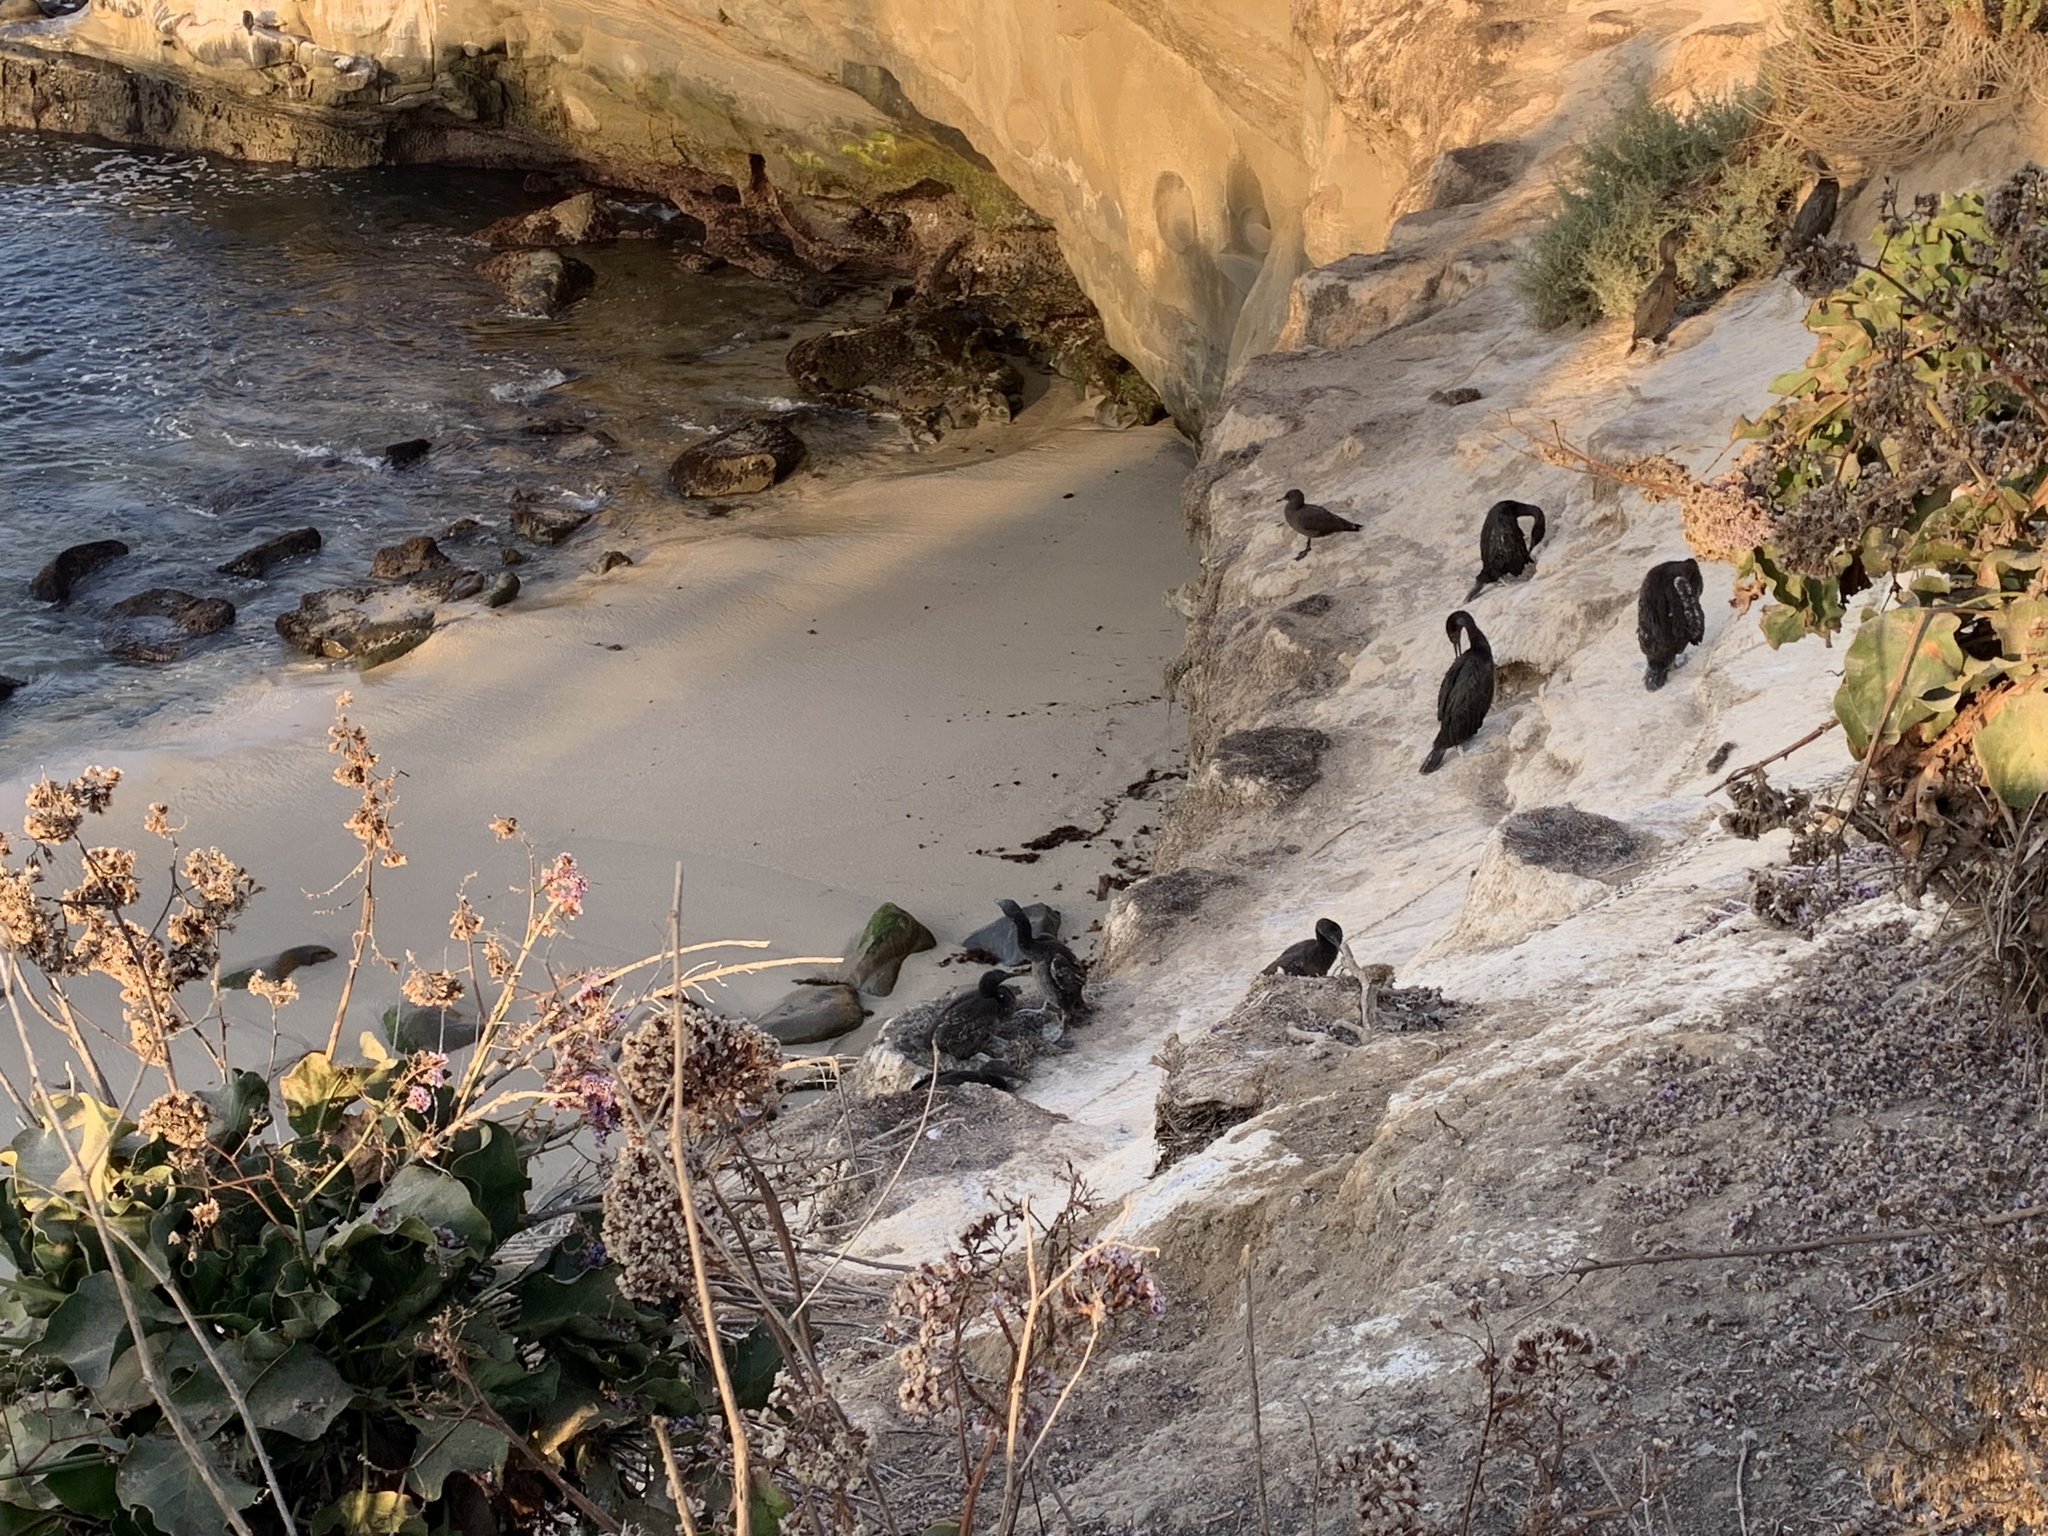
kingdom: Animalia
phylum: Chordata
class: Aves
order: Suliformes
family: Phalacrocoracidae
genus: Urile
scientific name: Urile penicillatus
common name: Brandt's cormorant
